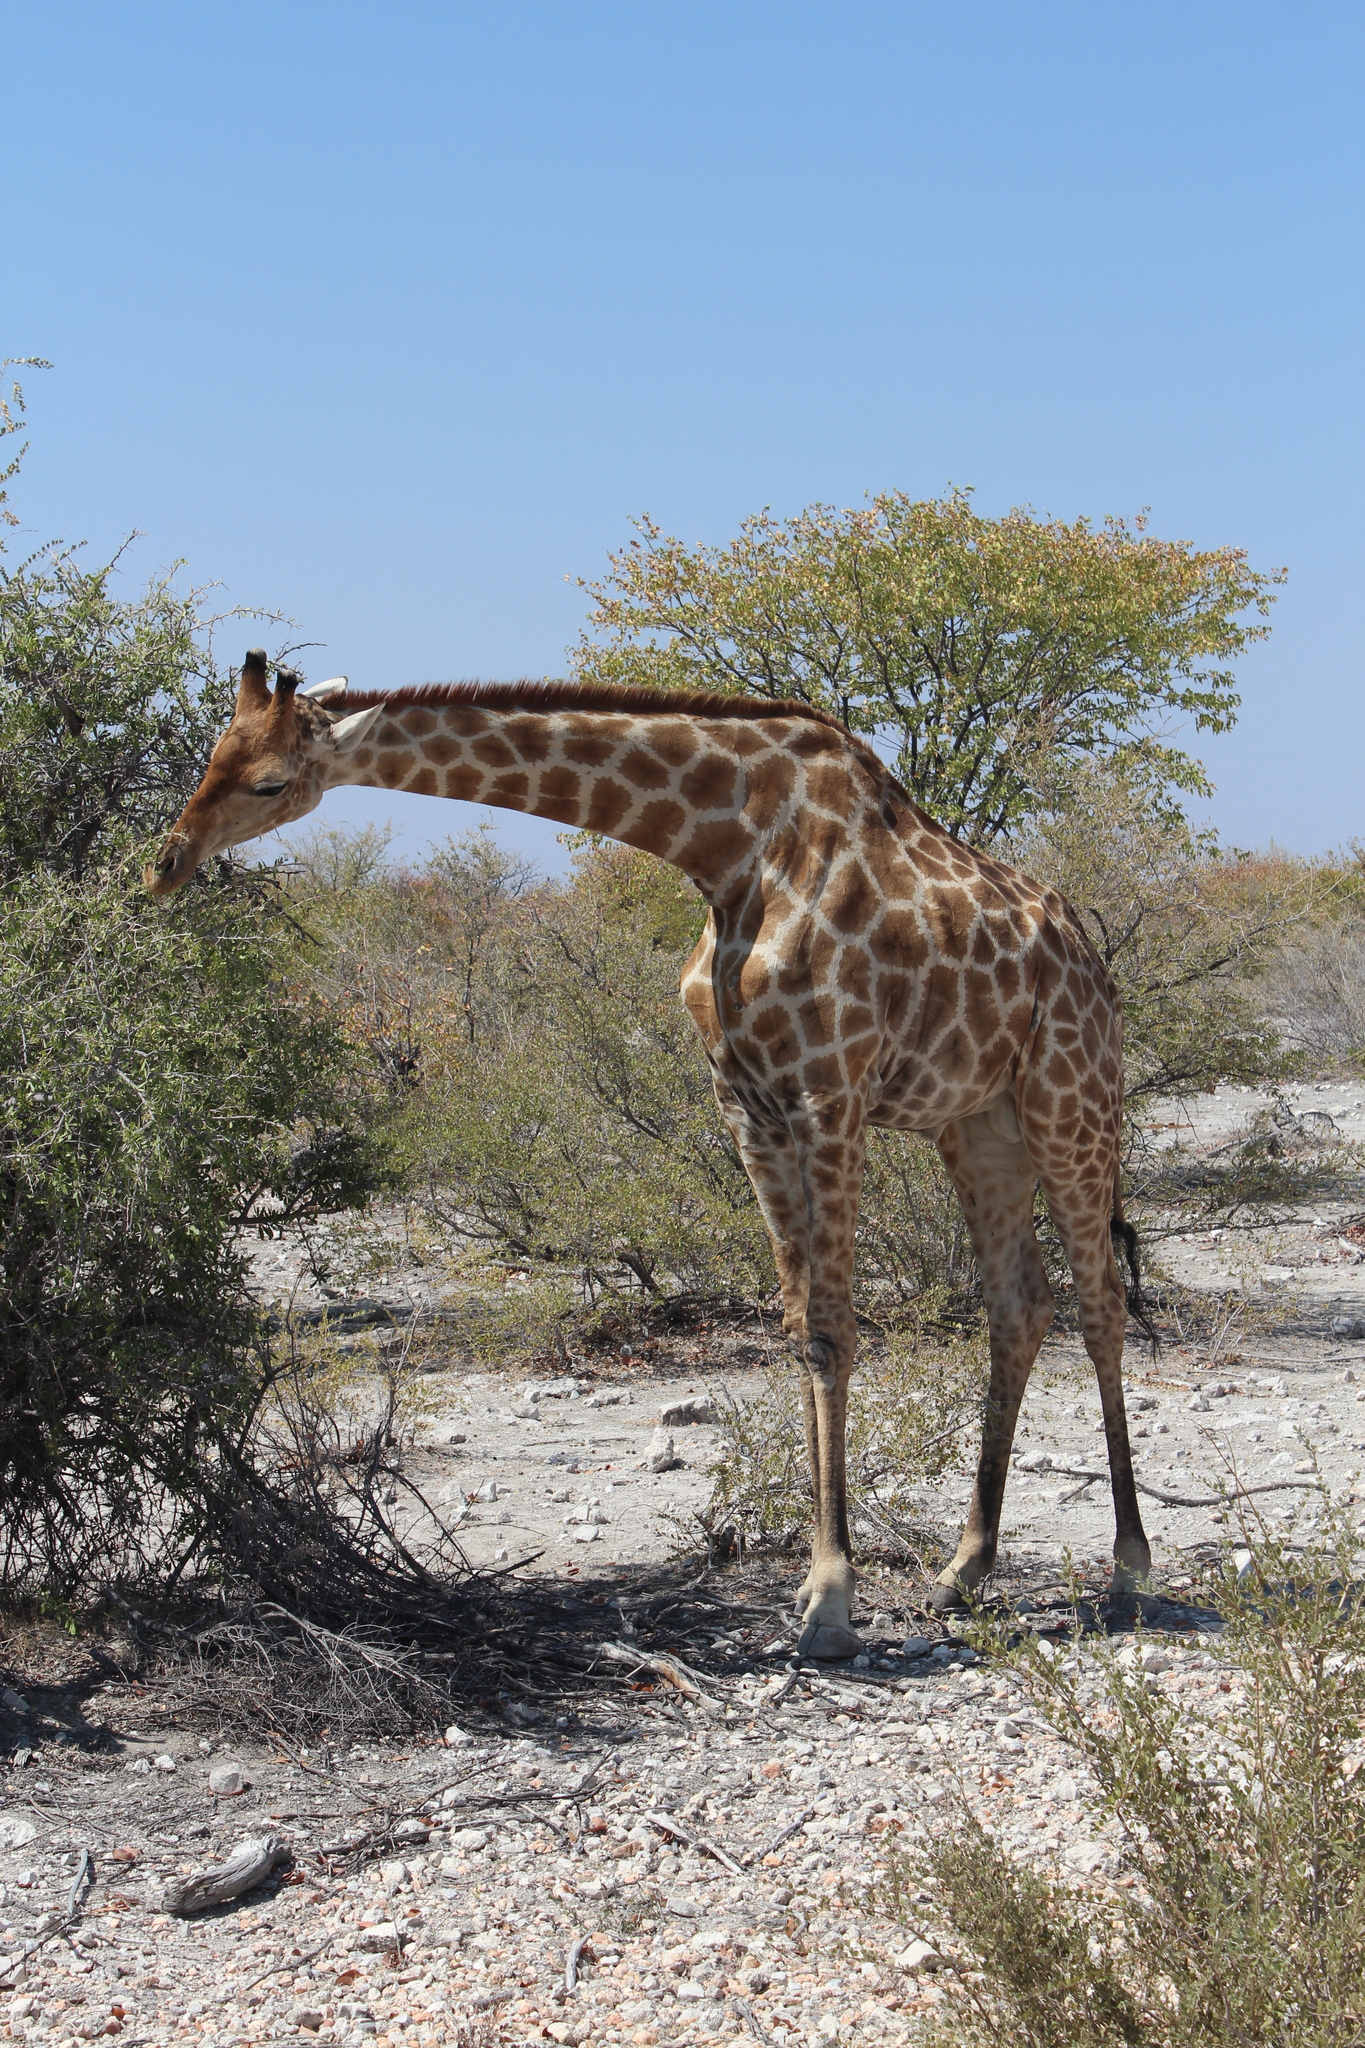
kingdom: Animalia
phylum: Chordata
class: Mammalia
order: Artiodactyla
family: Giraffidae
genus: Giraffa
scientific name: Giraffa giraffa
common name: Southern giraffe
